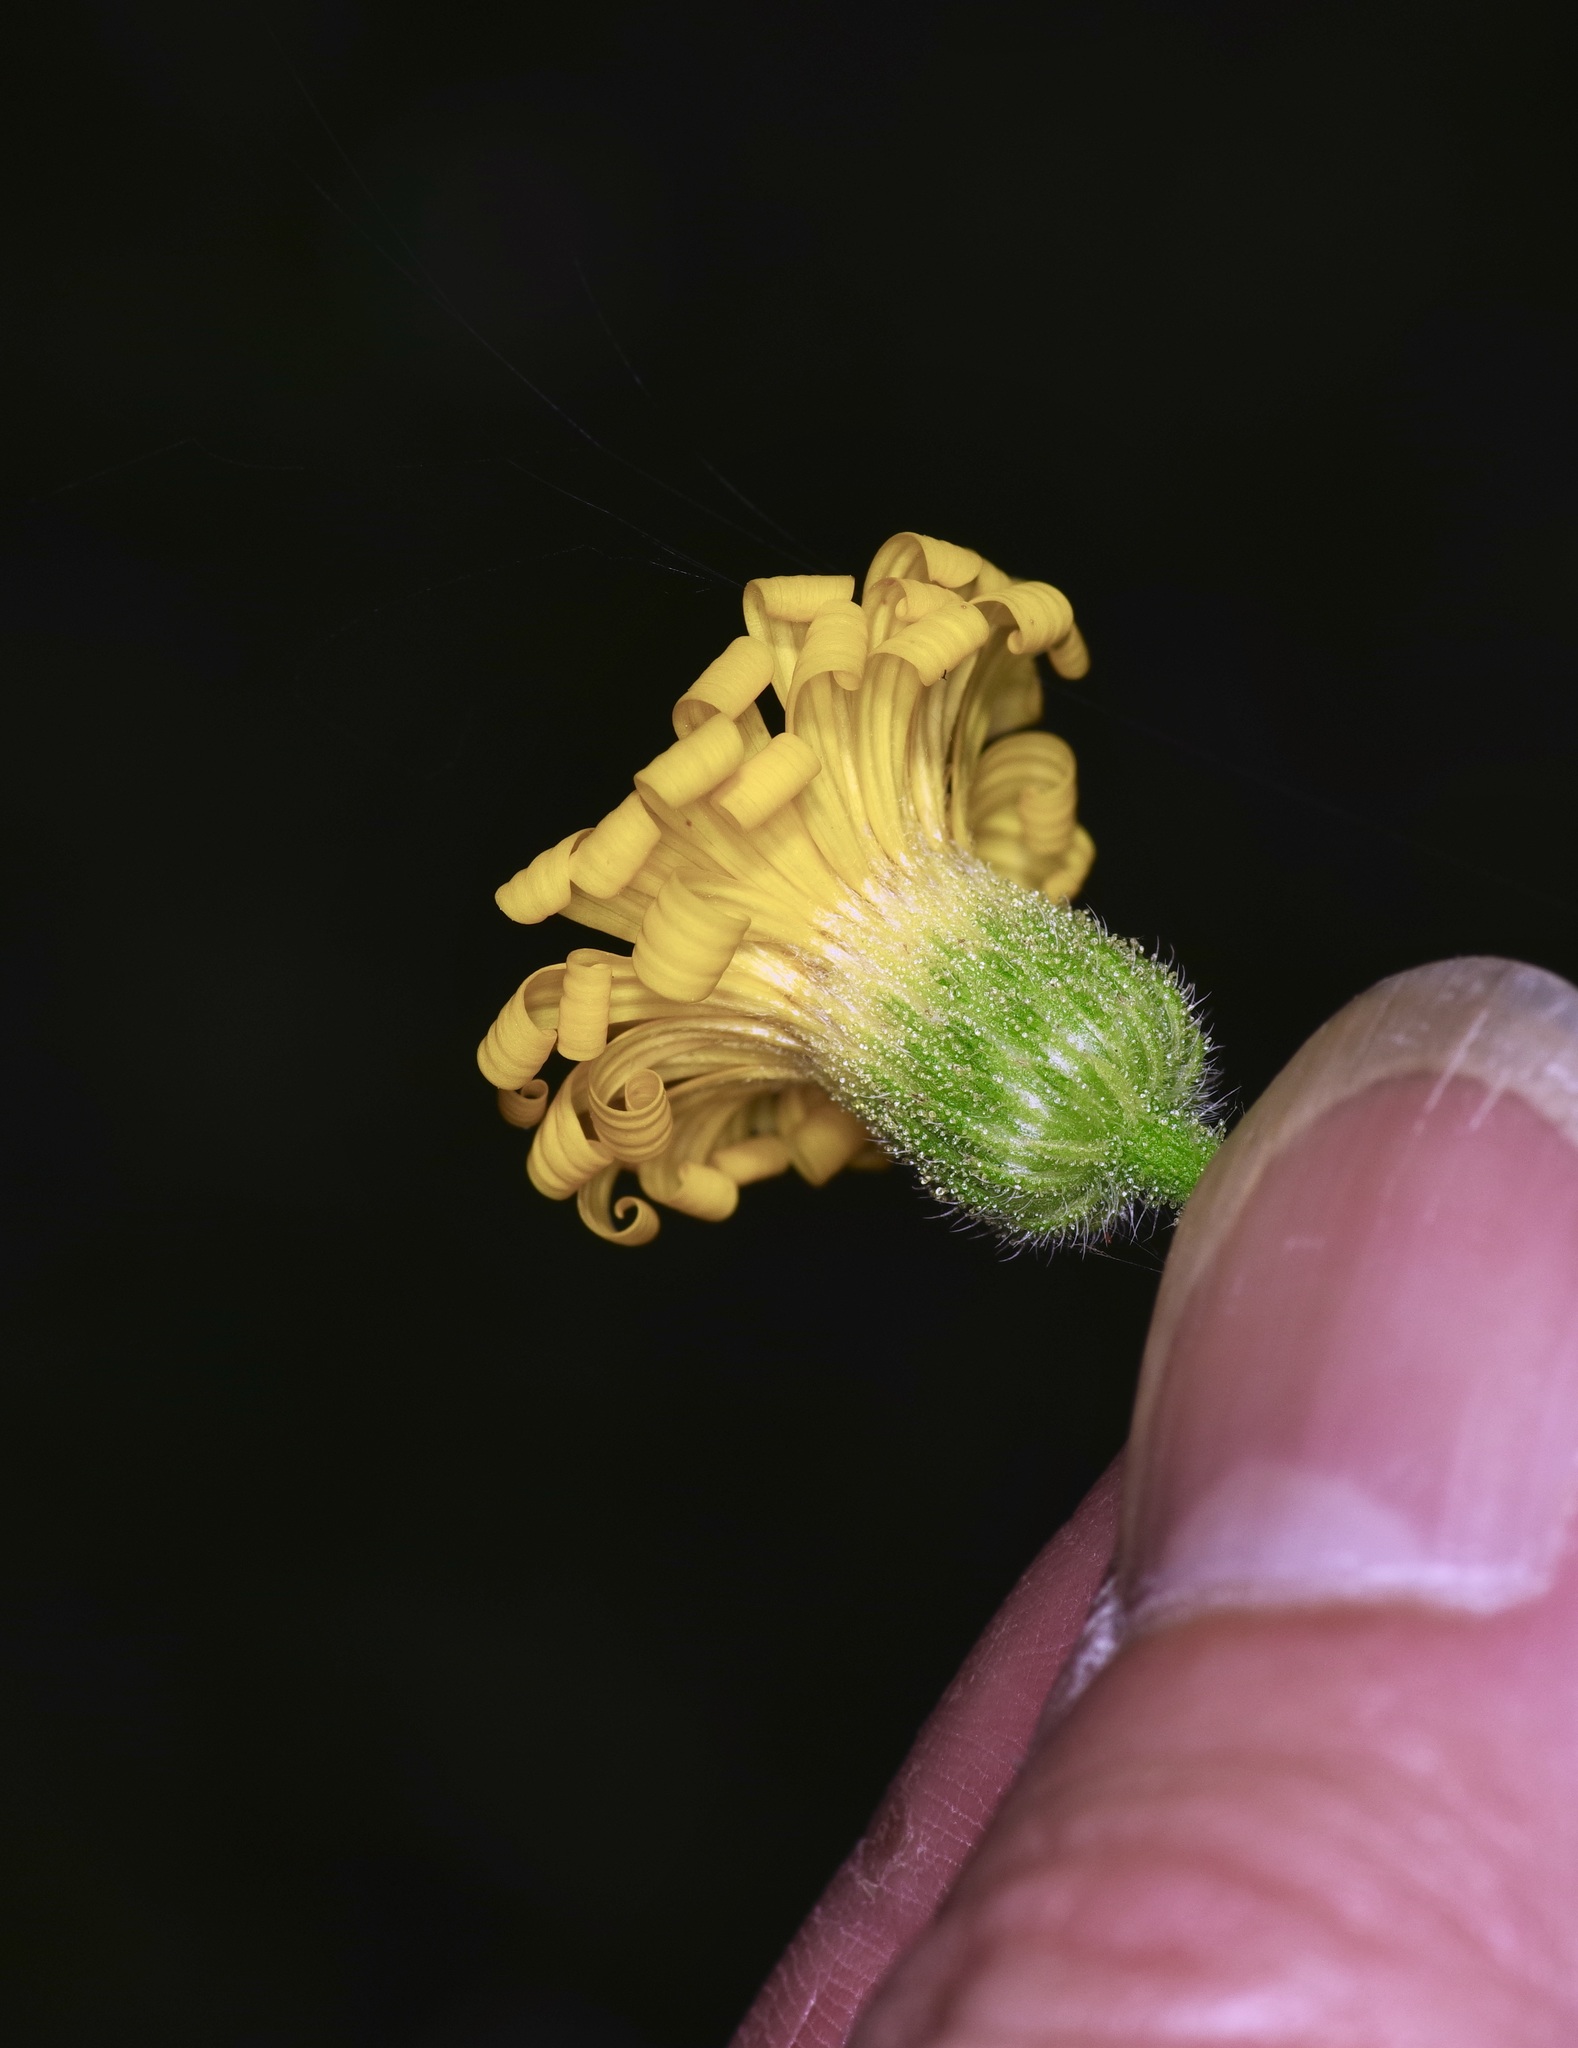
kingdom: Plantae
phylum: Tracheophyta
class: Magnoliopsida
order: Asterales
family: Asteraceae
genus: Heterotheca
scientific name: Heterotheca subaxillaris
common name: Camphorweed
